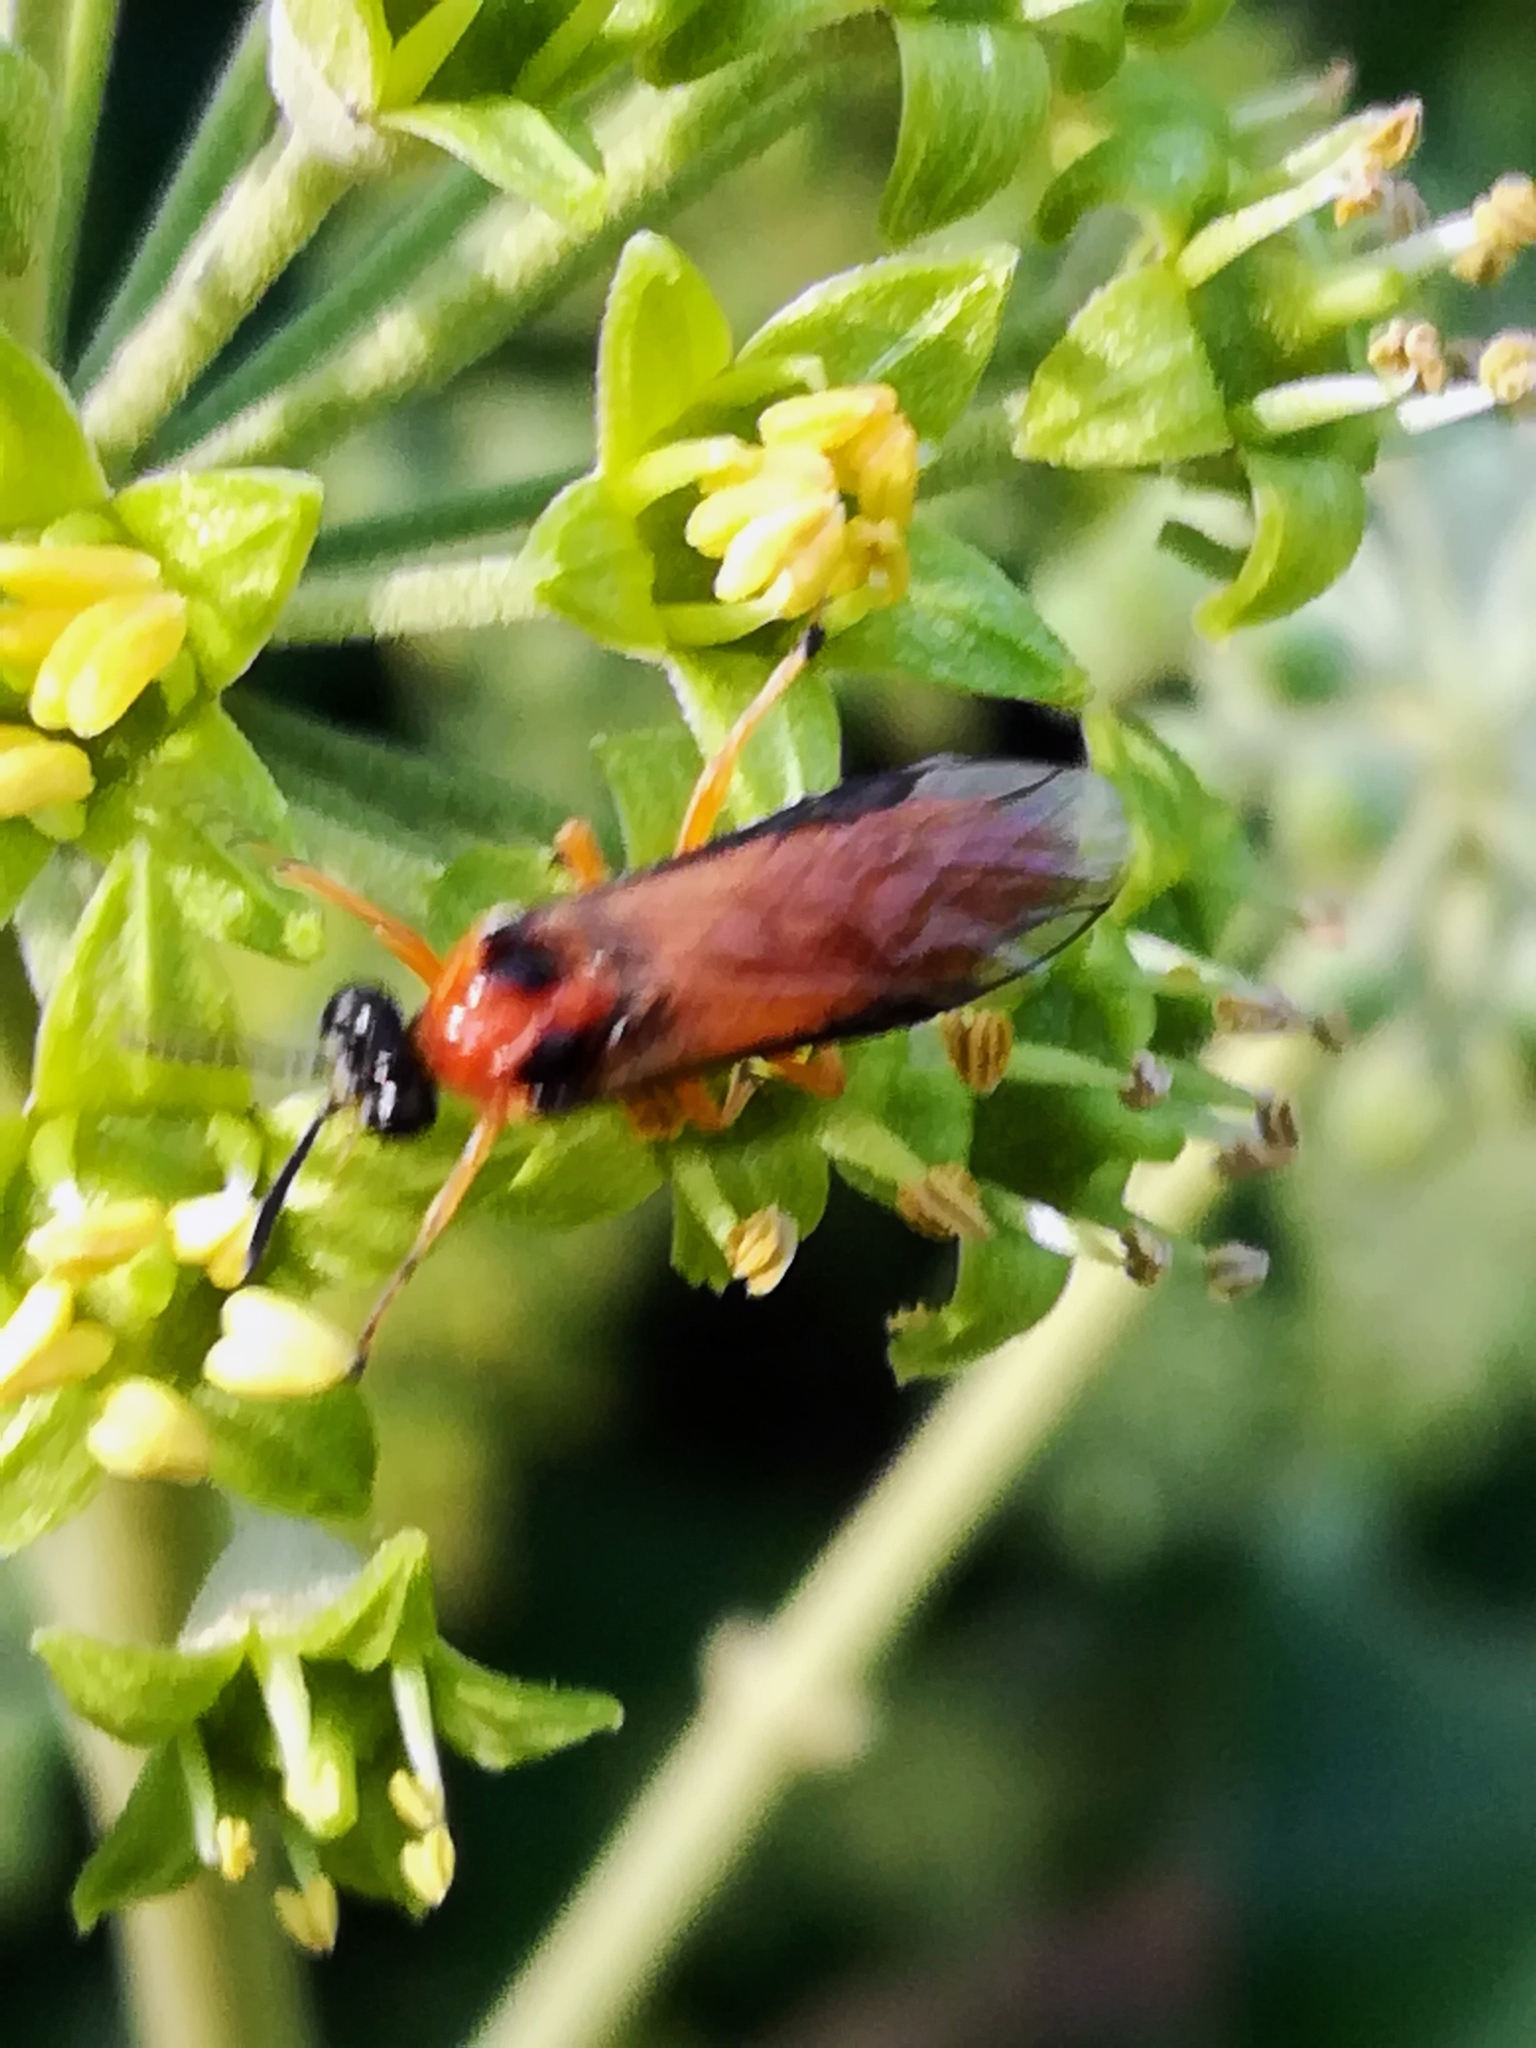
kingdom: Animalia
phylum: Arthropoda
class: Insecta
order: Hymenoptera
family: Tenthredinidae
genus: Athalia
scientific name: Athalia rosae
